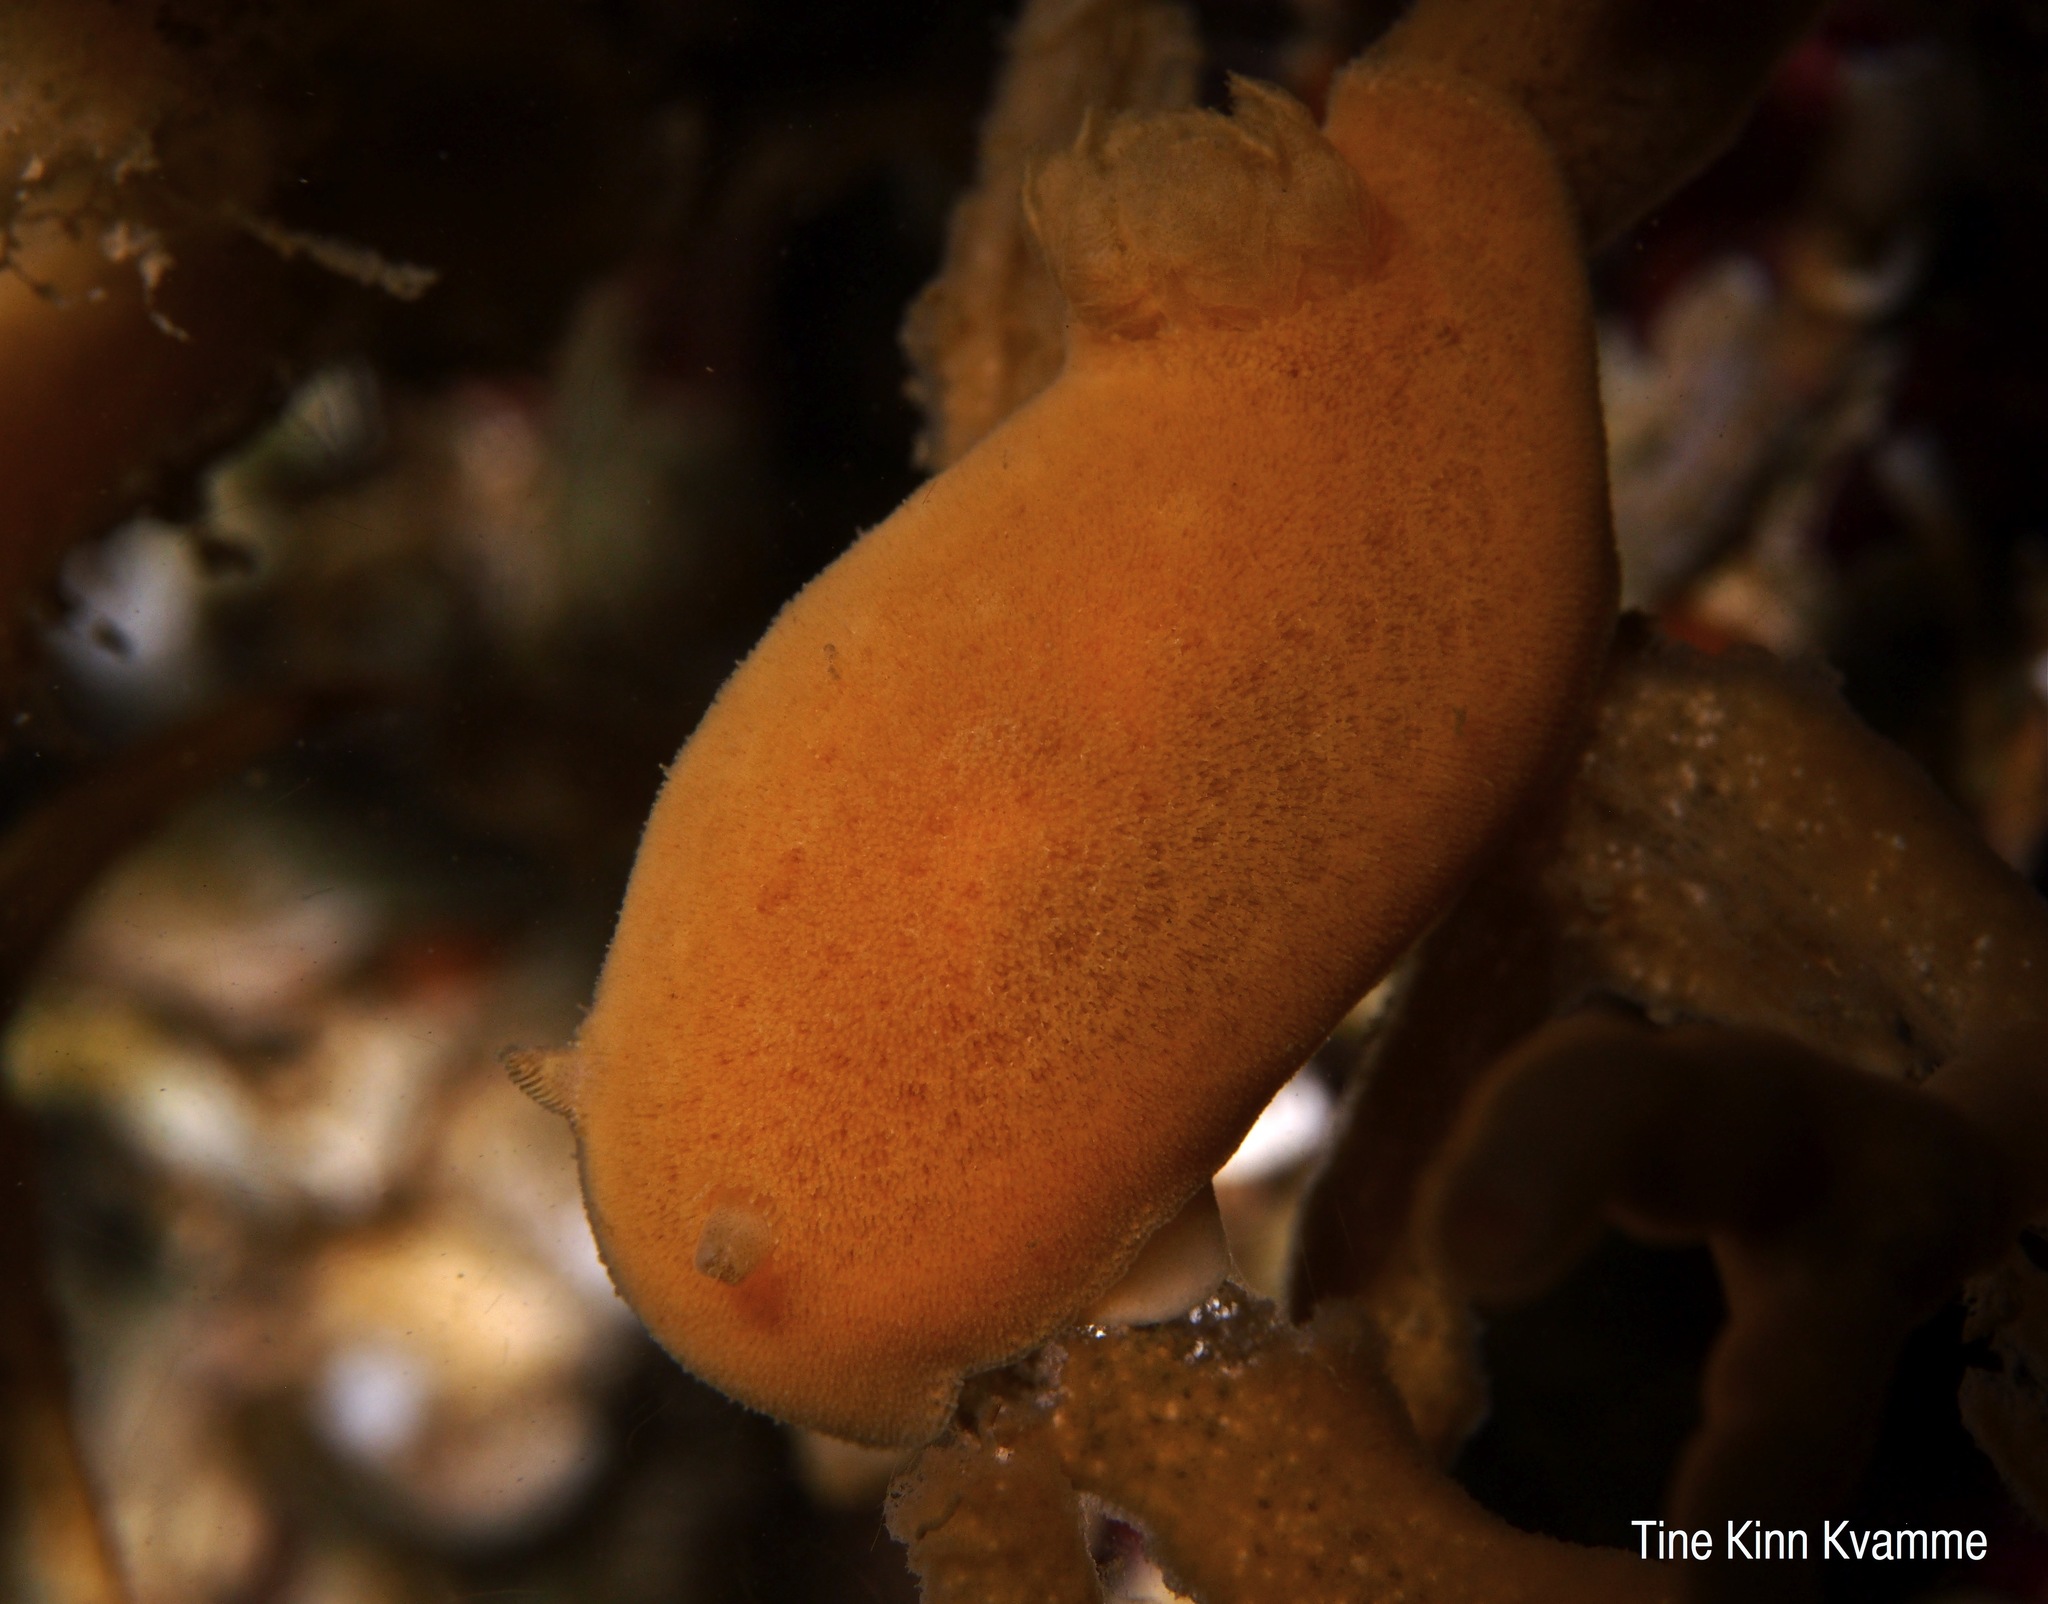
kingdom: Animalia
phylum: Mollusca
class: Gastropoda
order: Nudibranchia
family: Discodorididae
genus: Jorunna
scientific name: Jorunna tomentosa
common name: Grey sea slug
